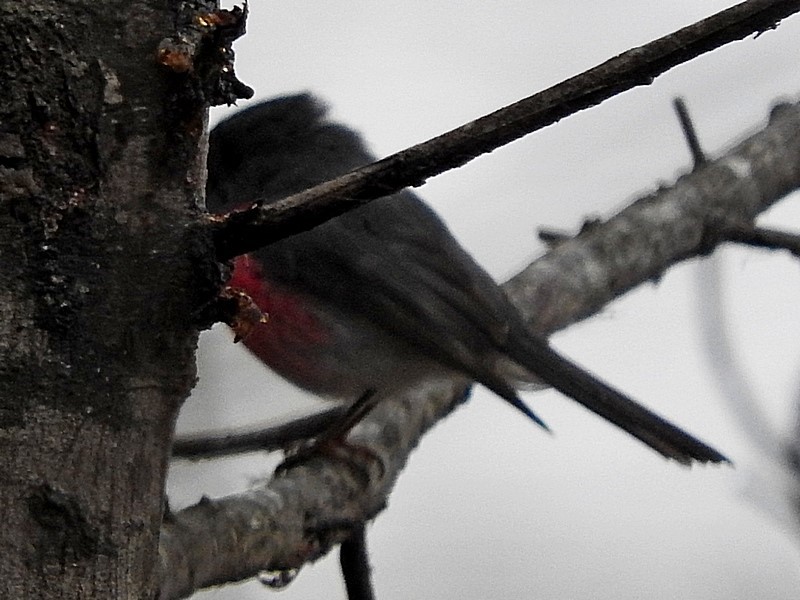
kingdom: Animalia
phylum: Chordata
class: Aves
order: Passeriformes
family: Petroicidae
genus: Petroica
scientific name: Petroica rosea
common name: Rose robin
